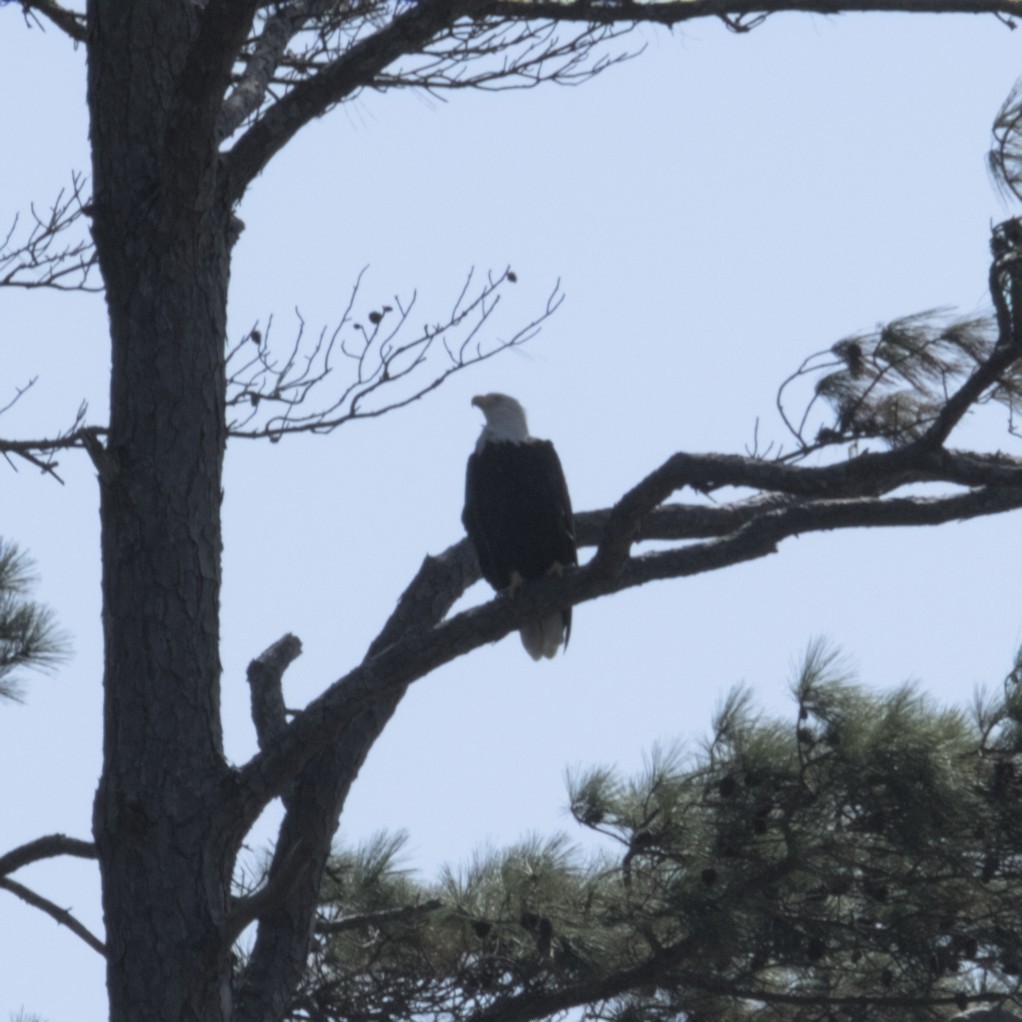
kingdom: Animalia
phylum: Chordata
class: Aves
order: Accipitriformes
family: Accipitridae
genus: Haliaeetus
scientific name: Haliaeetus leucocephalus
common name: Bald eagle
